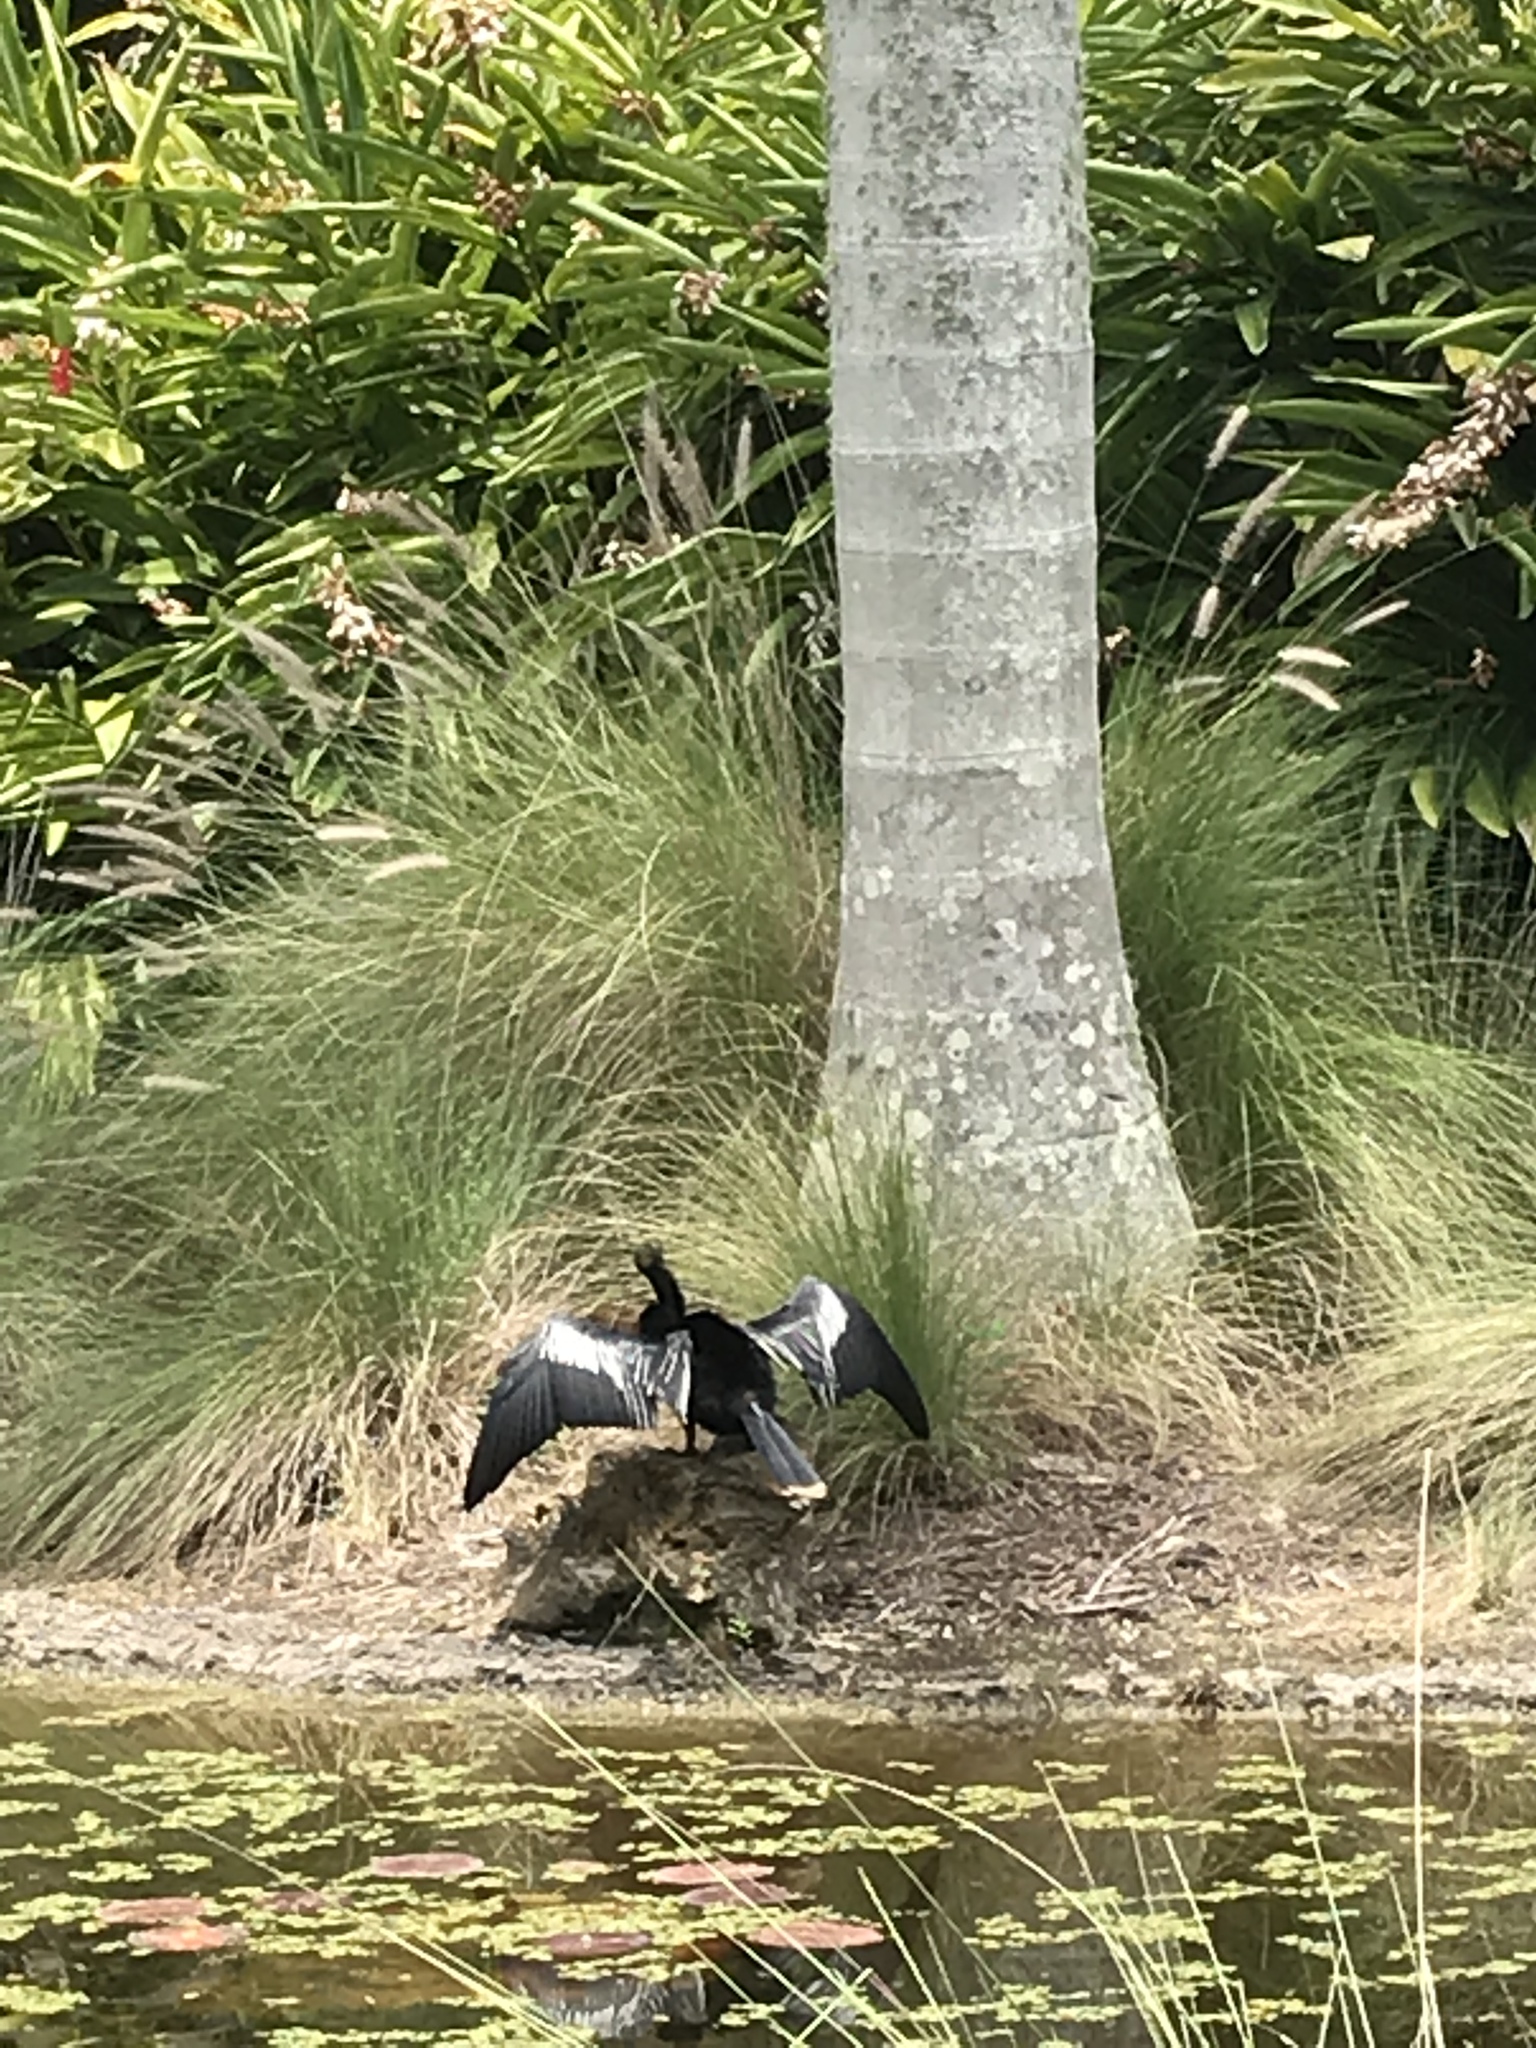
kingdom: Animalia
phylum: Chordata
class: Aves
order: Suliformes
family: Anhingidae
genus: Anhinga
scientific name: Anhinga anhinga
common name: Anhinga
